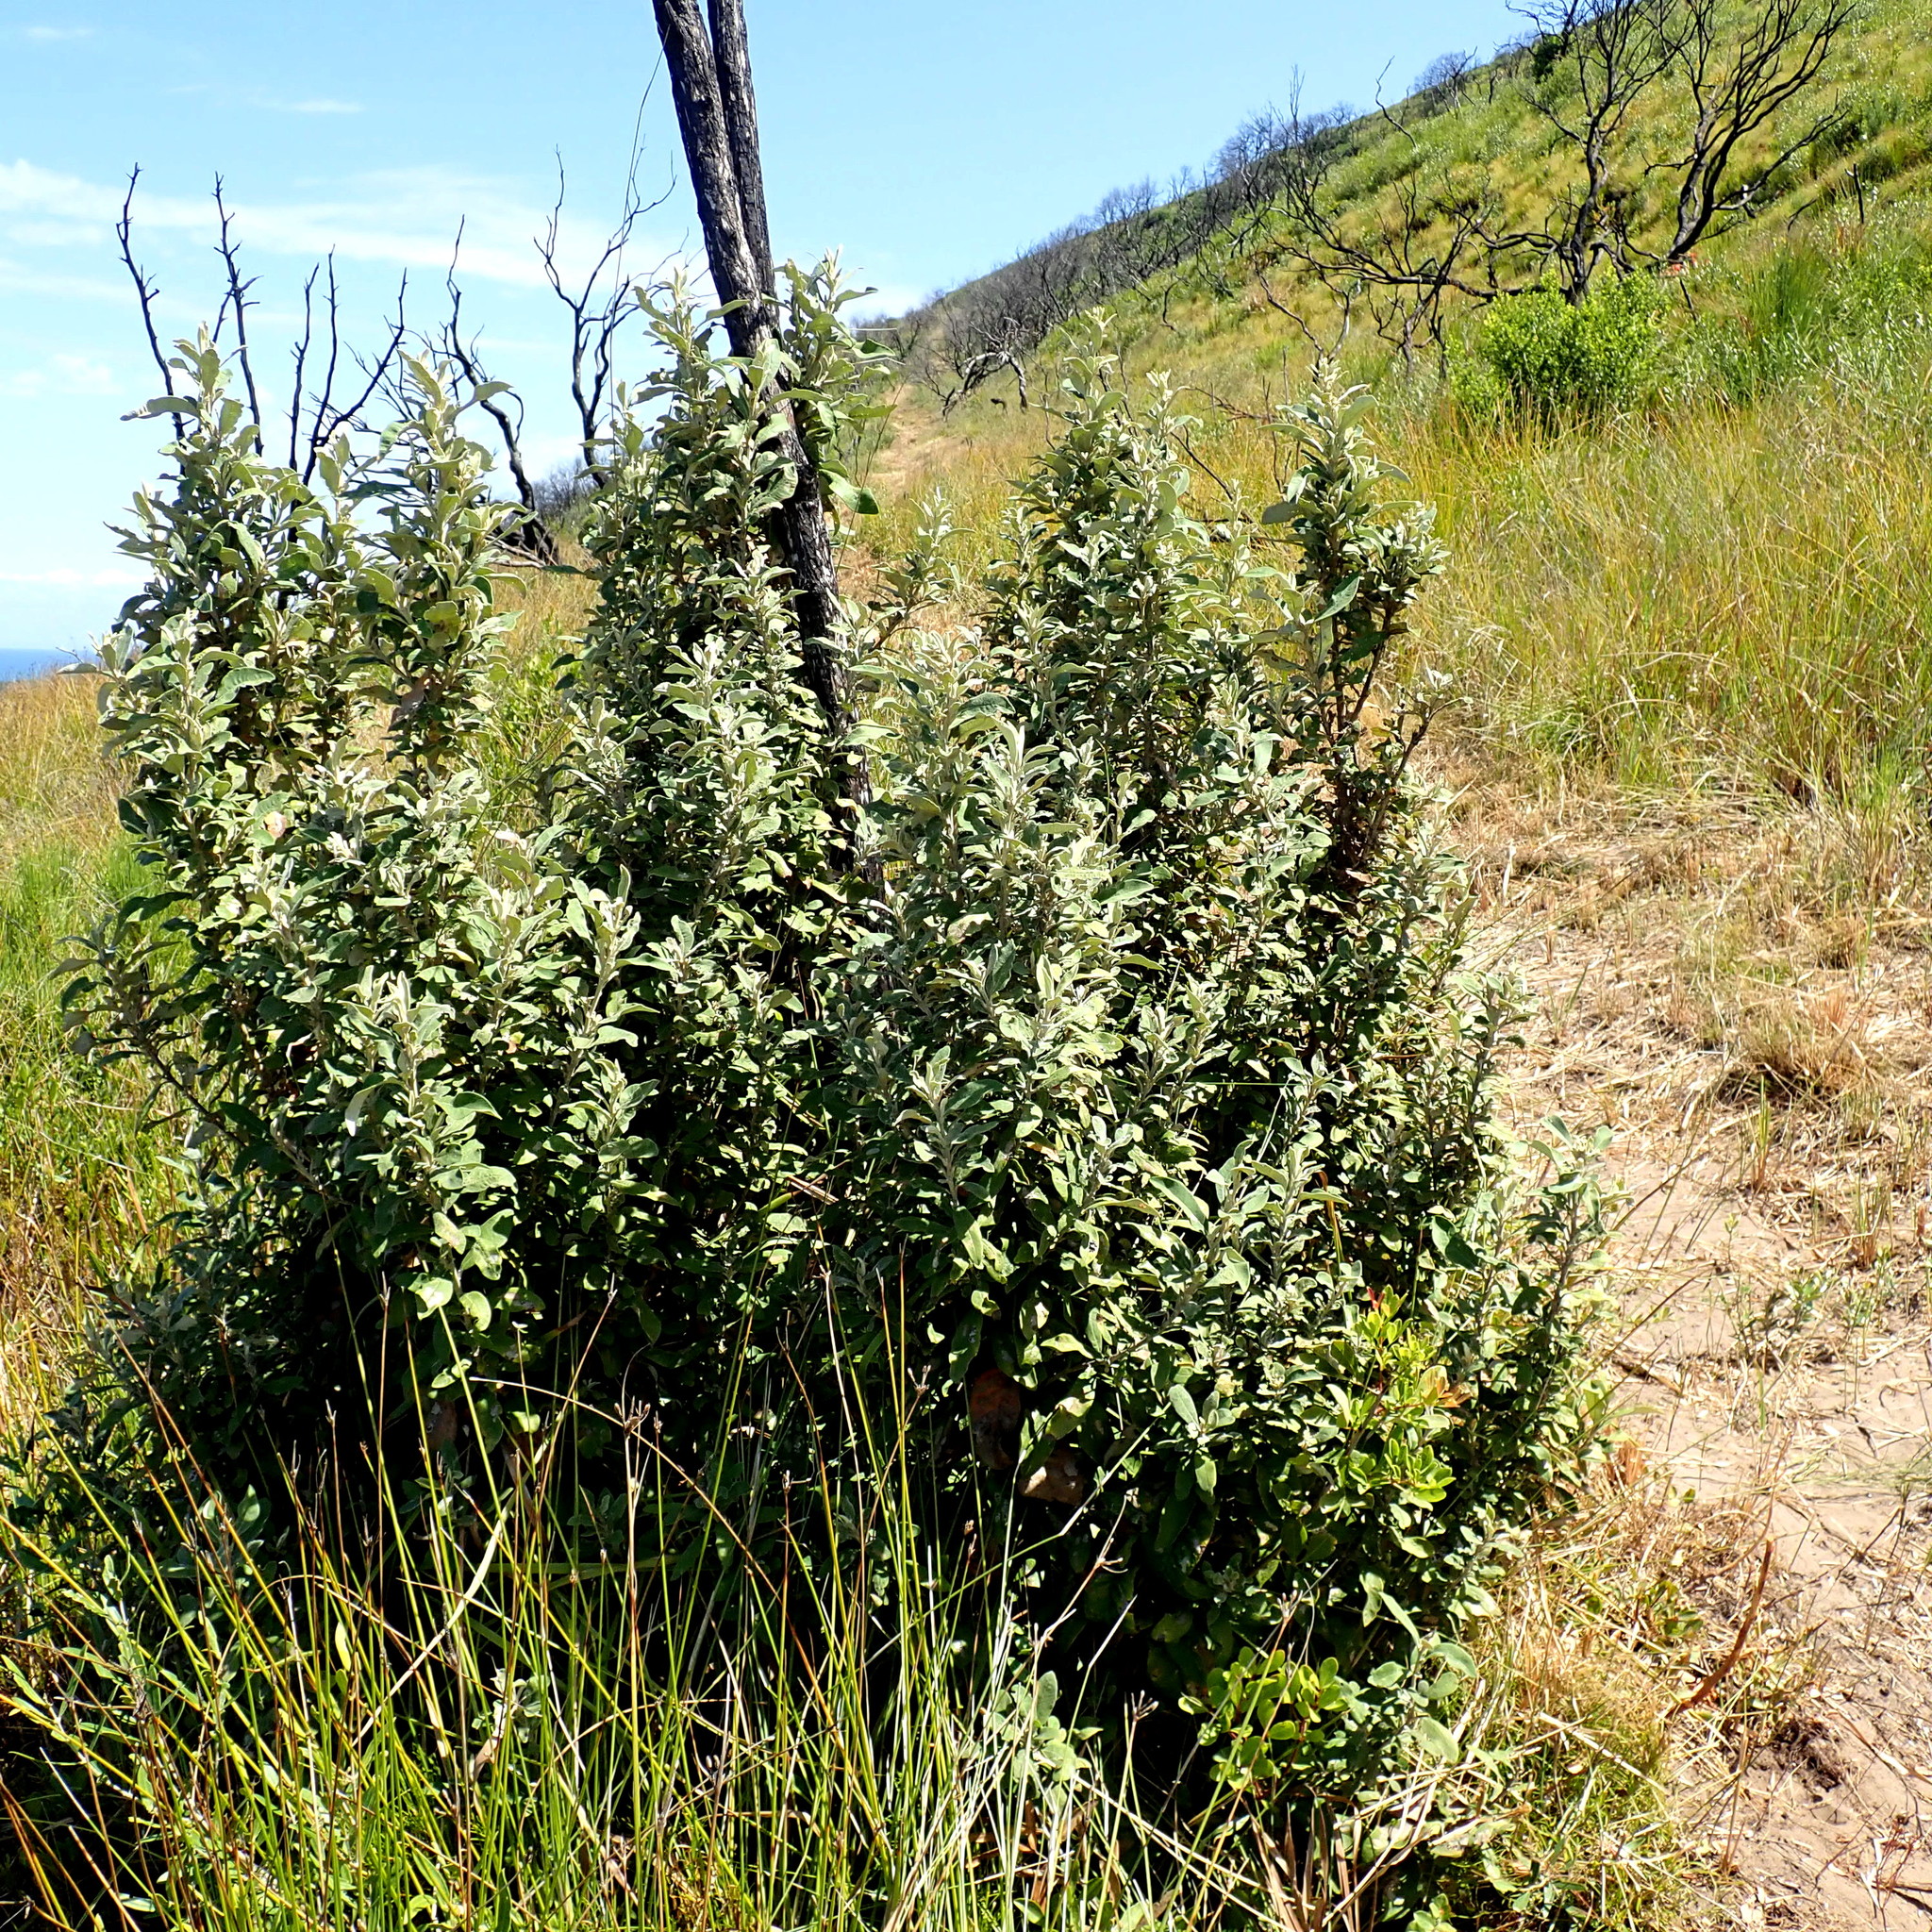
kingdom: Plantae
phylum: Tracheophyta
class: Magnoliopsida
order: Asterales
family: Asteraceae
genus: Tarchonanthus
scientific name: Tarchonanthus littoralis
